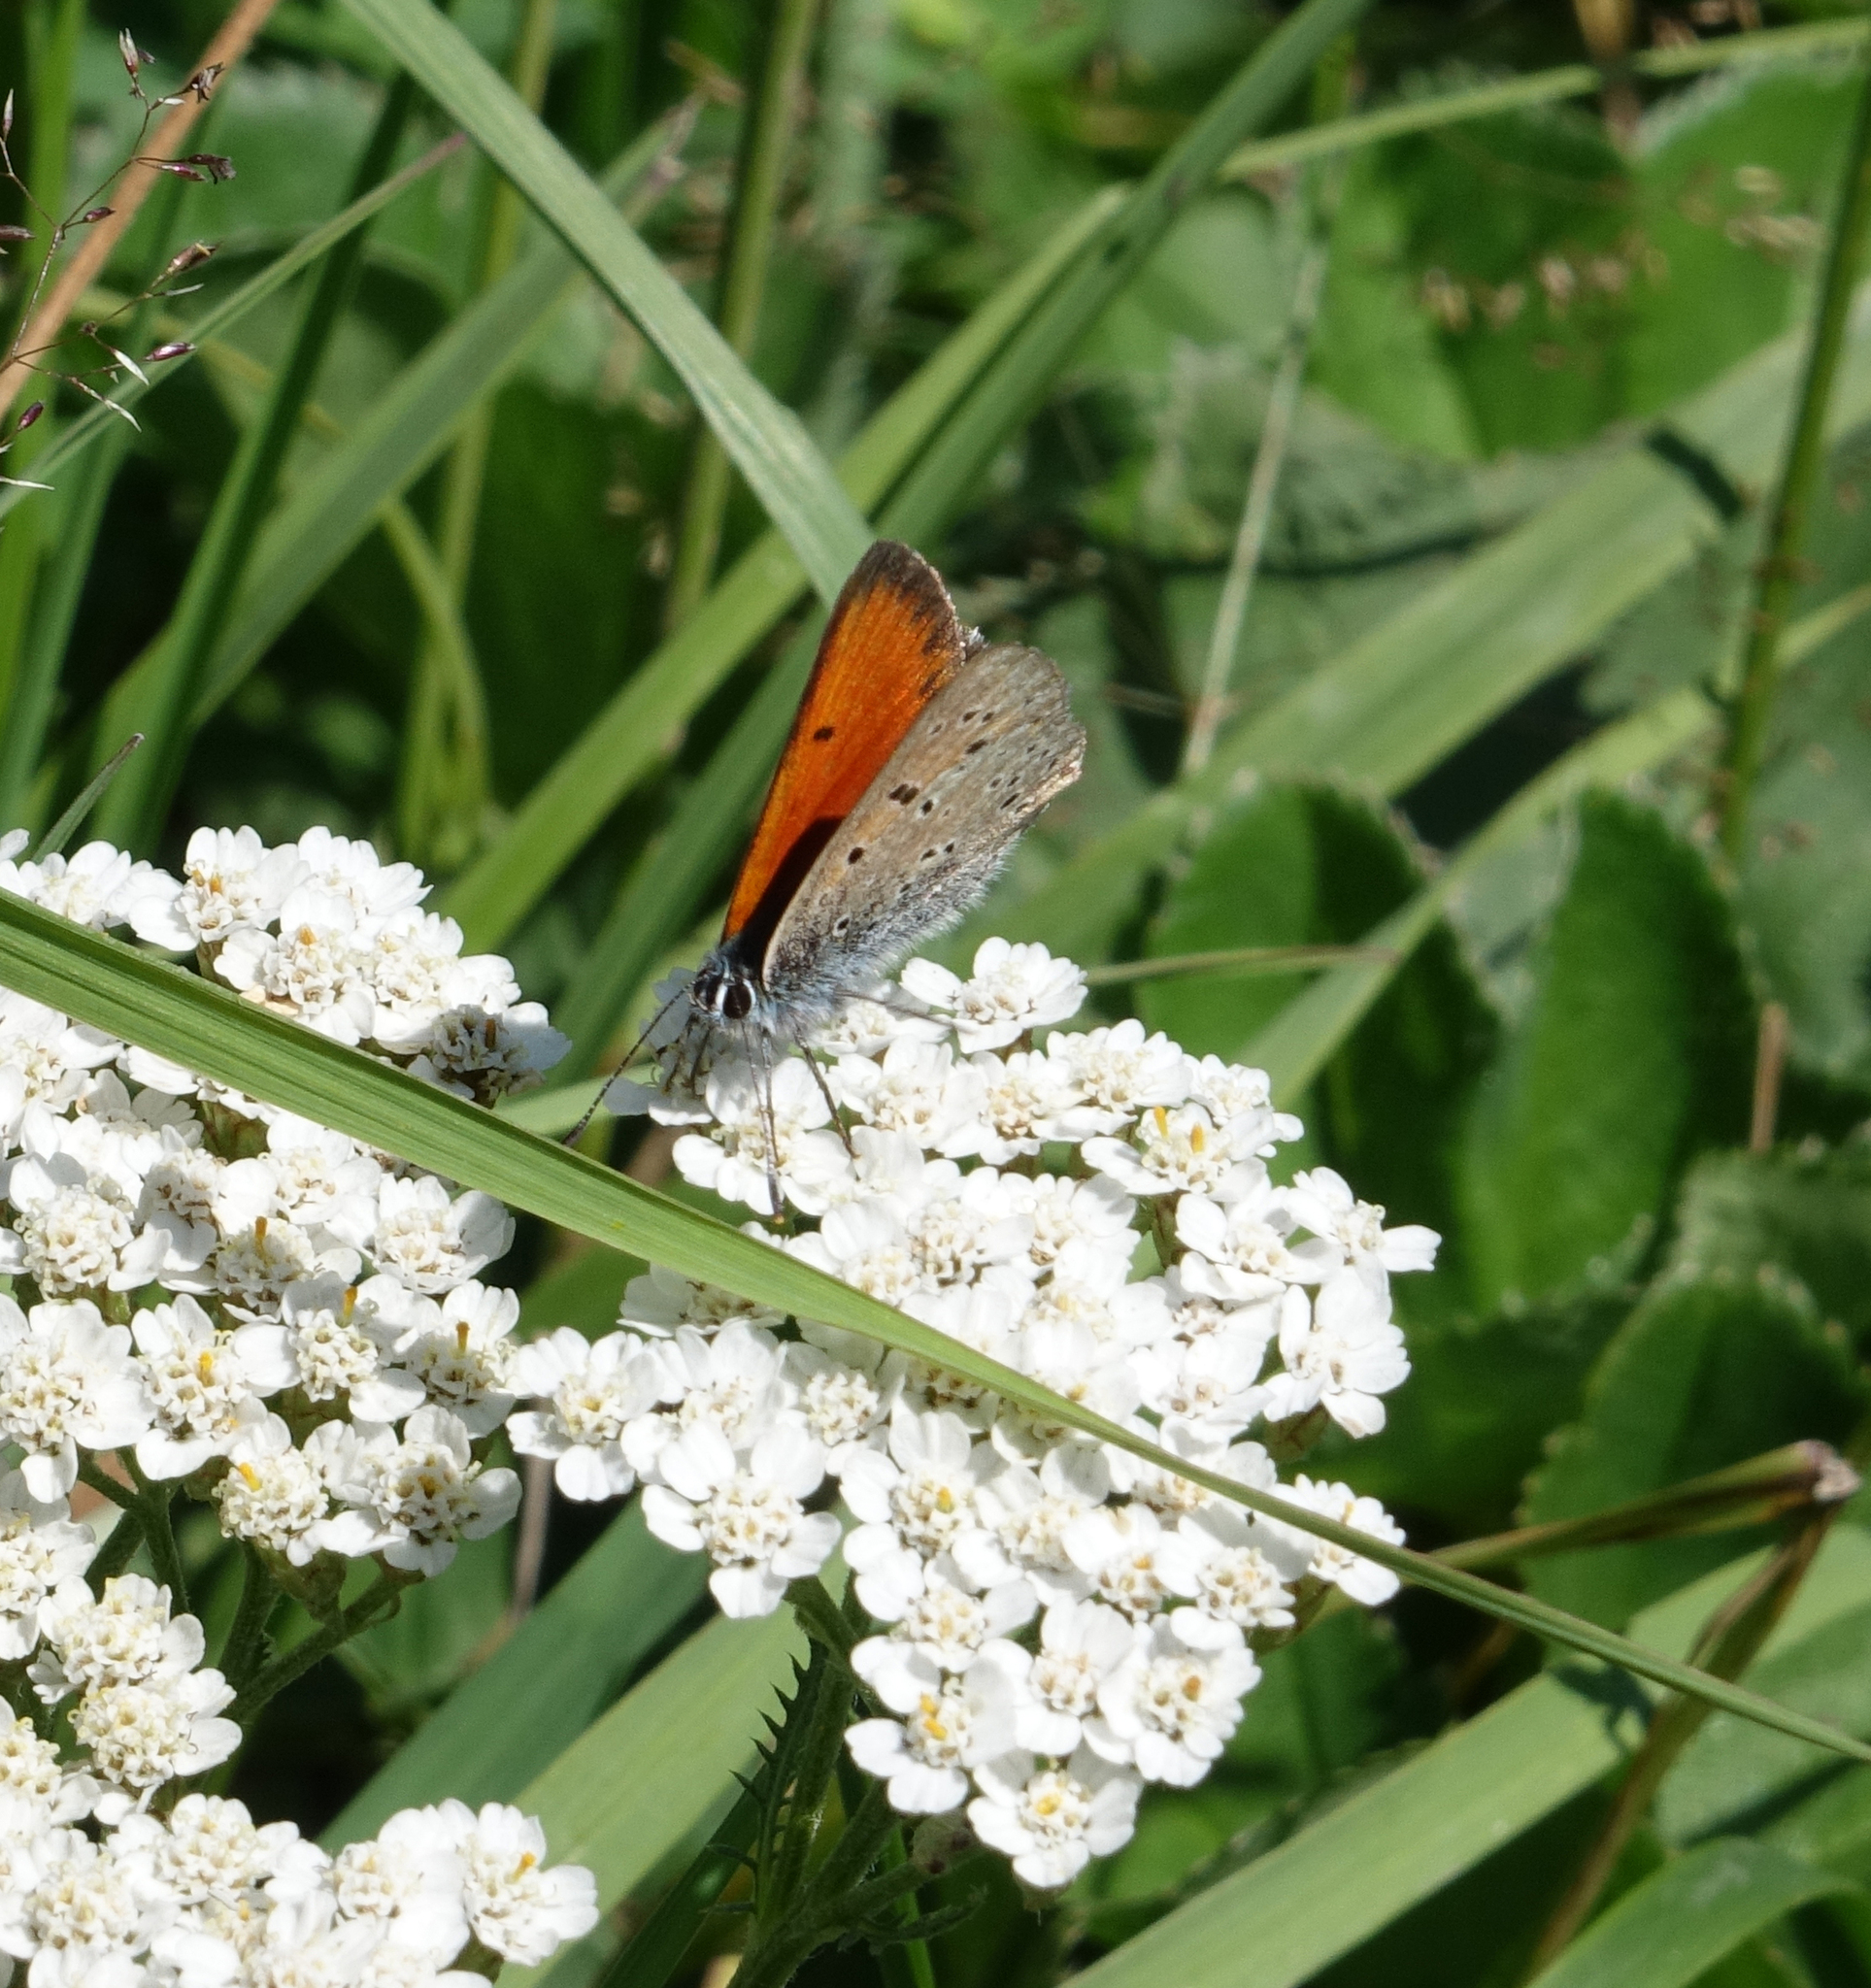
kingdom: Animalia
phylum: Arthropoda
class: Insecta
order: Lepidoptera
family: Lycaenidae
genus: Palaeochrysophanus
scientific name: Palaeochrysophanus candens
